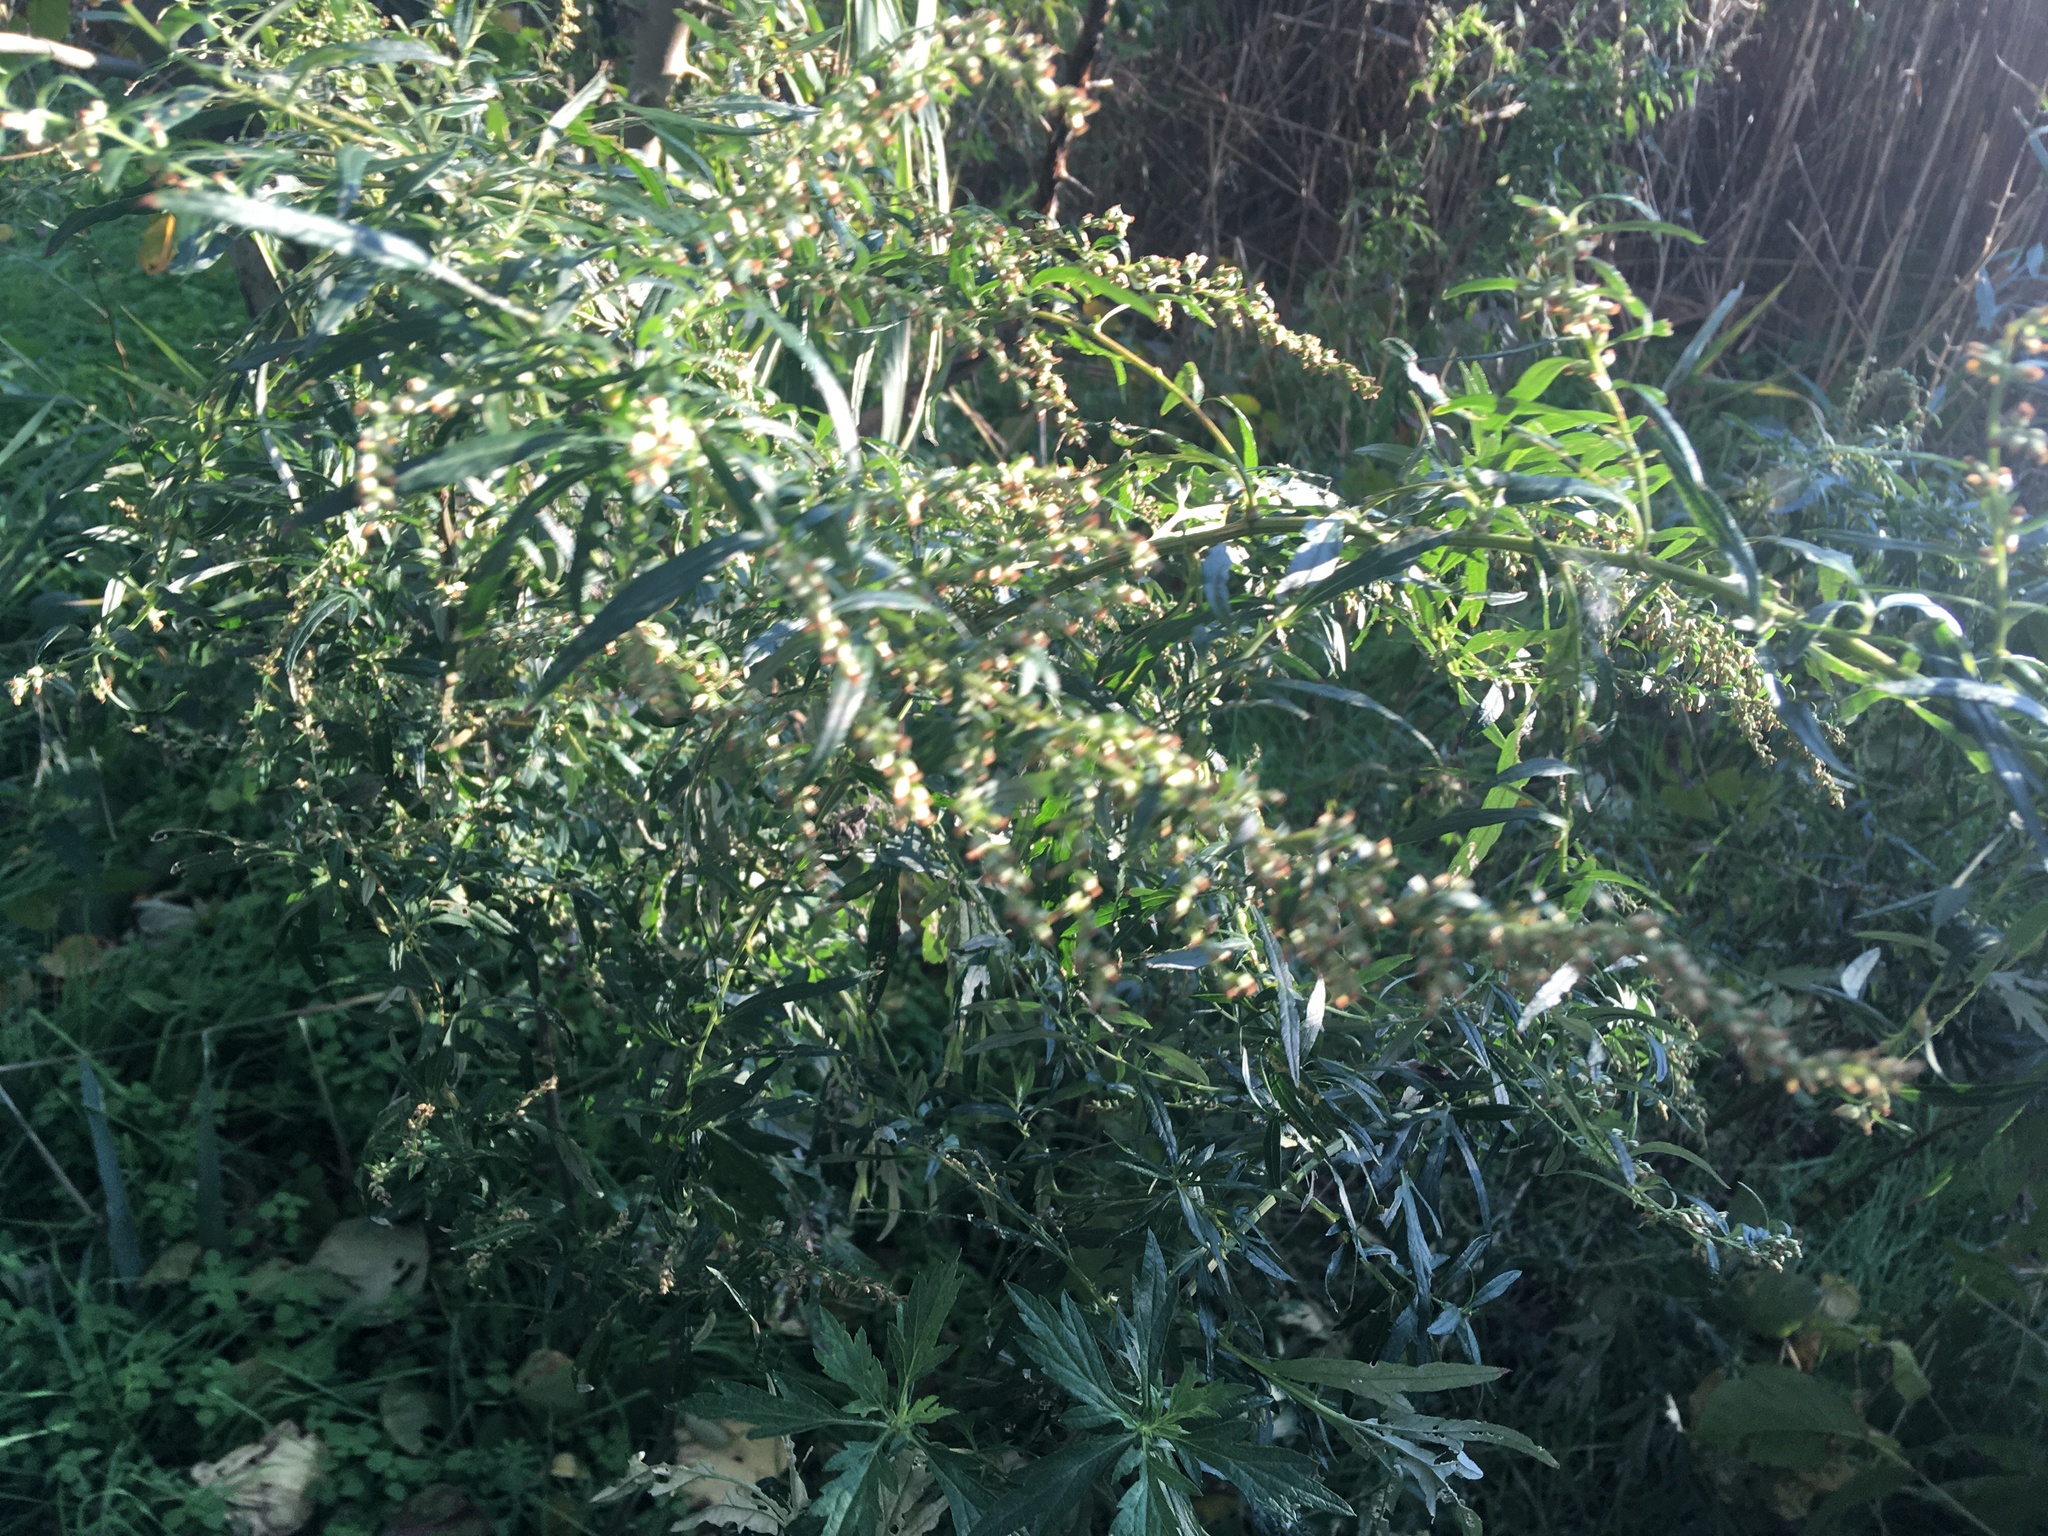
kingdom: Plantae
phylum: Tracheophyta
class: Magnoliopsida
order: Asterales
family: Asteraceae
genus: Artemisia
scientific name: Artemisia vulgaris
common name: Mugwort
